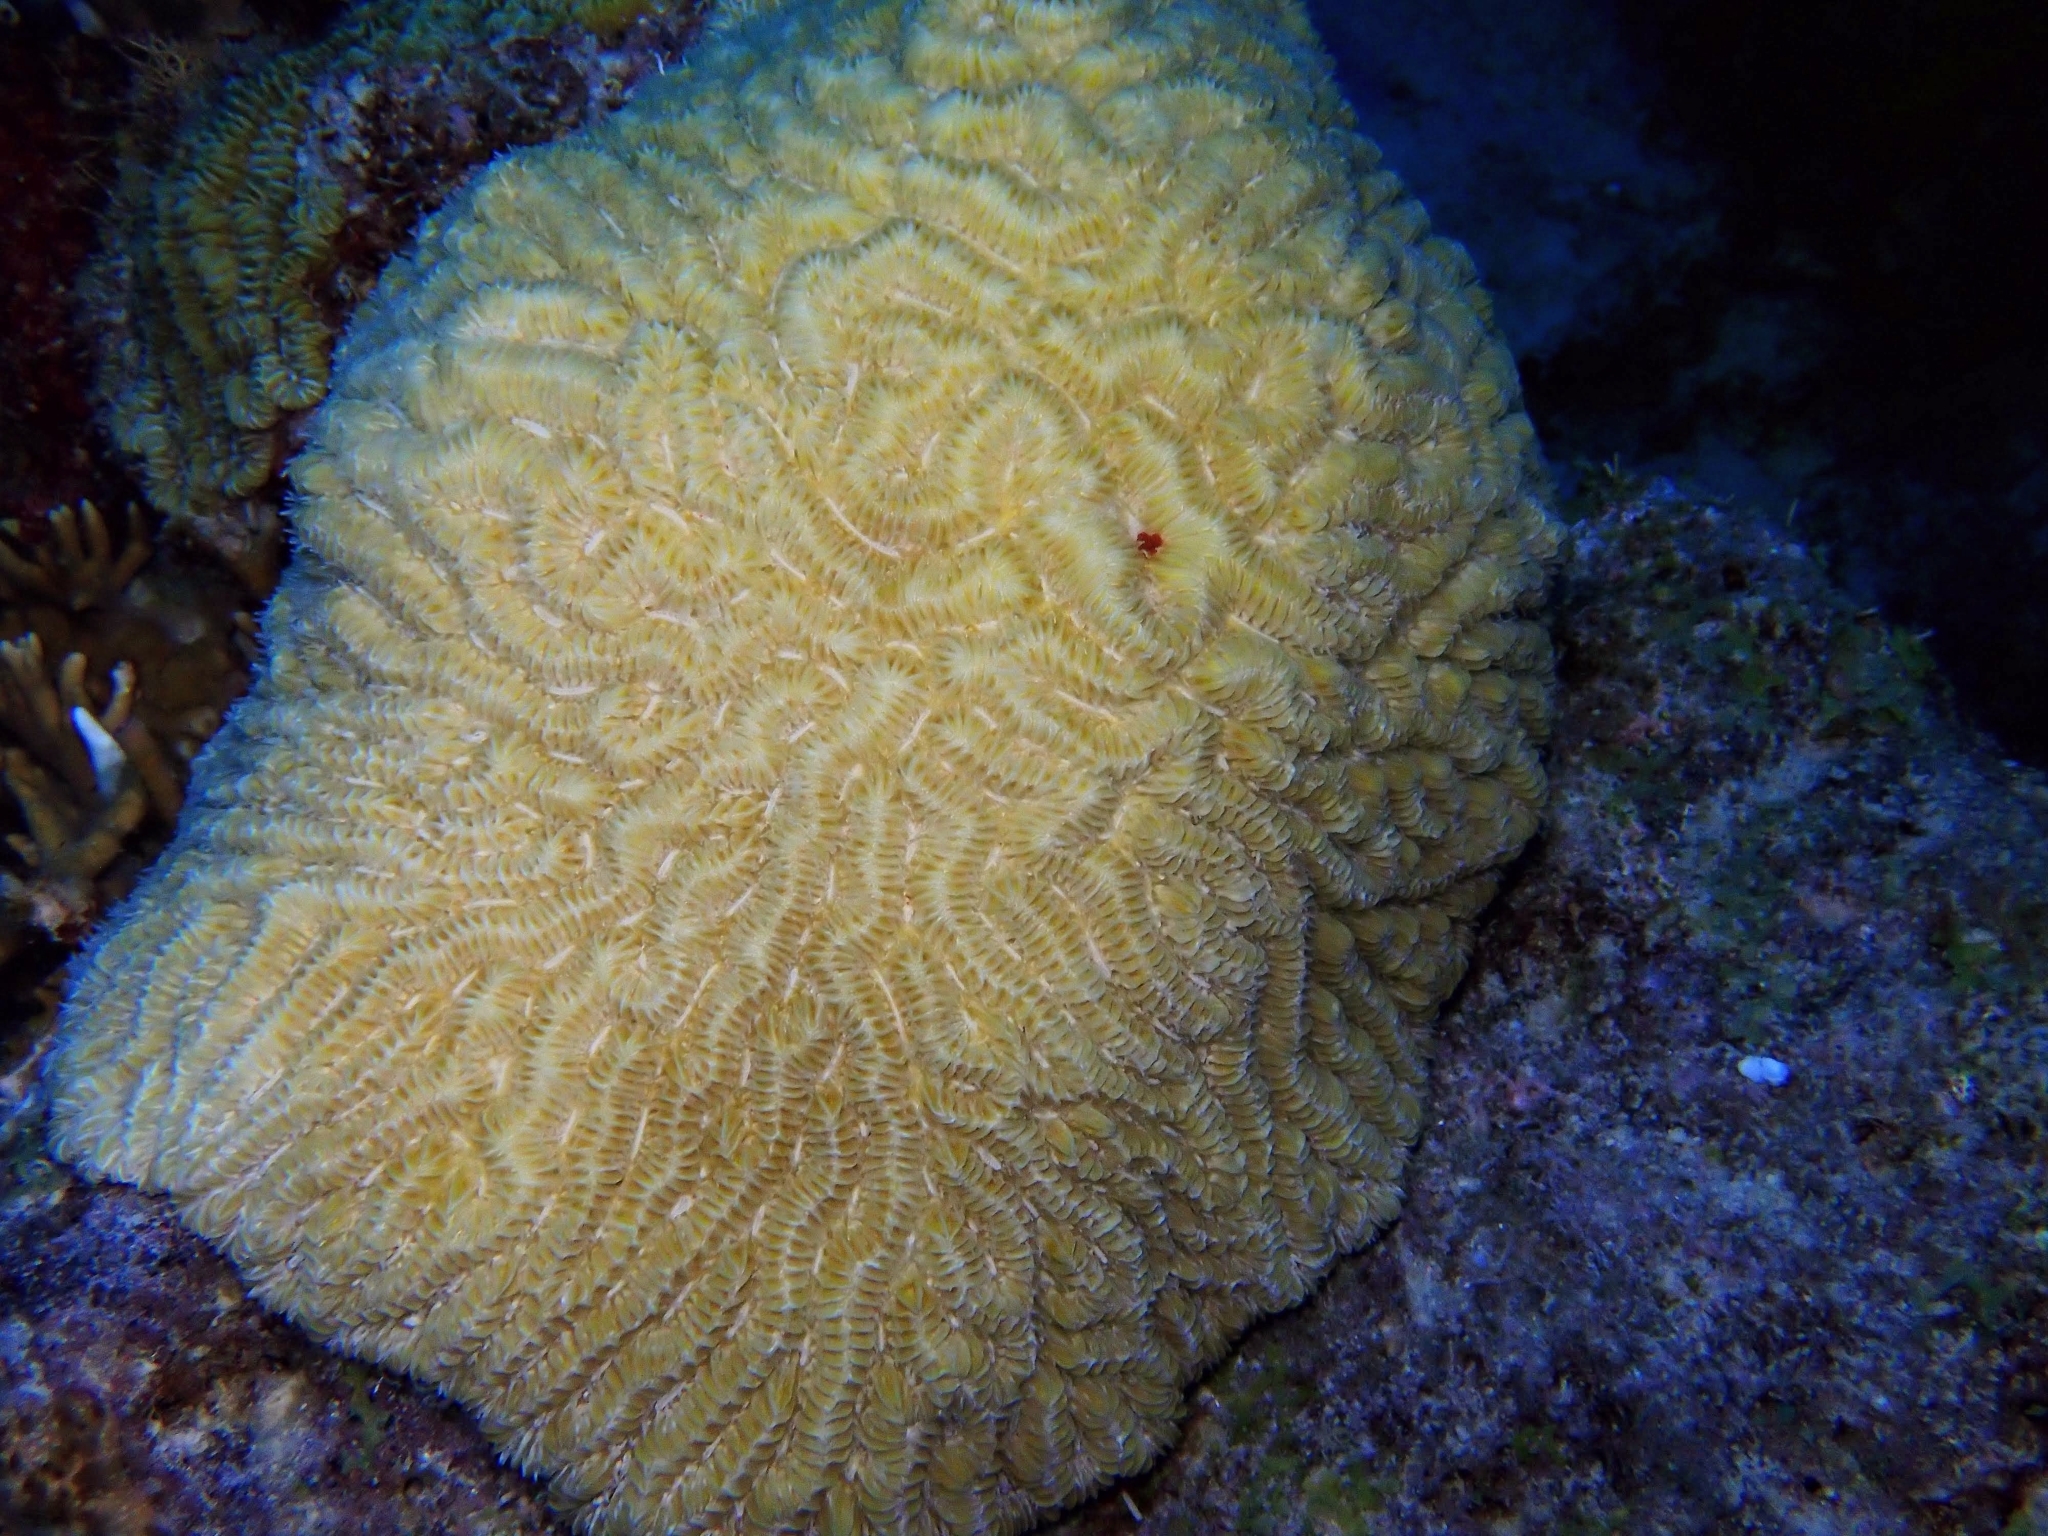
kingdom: Animalia
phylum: Cnidaria
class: Anthozoa
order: Scleractinia
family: Meandrinidae
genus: Meandrina
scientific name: Meandrina meandrites
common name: Maze coral
